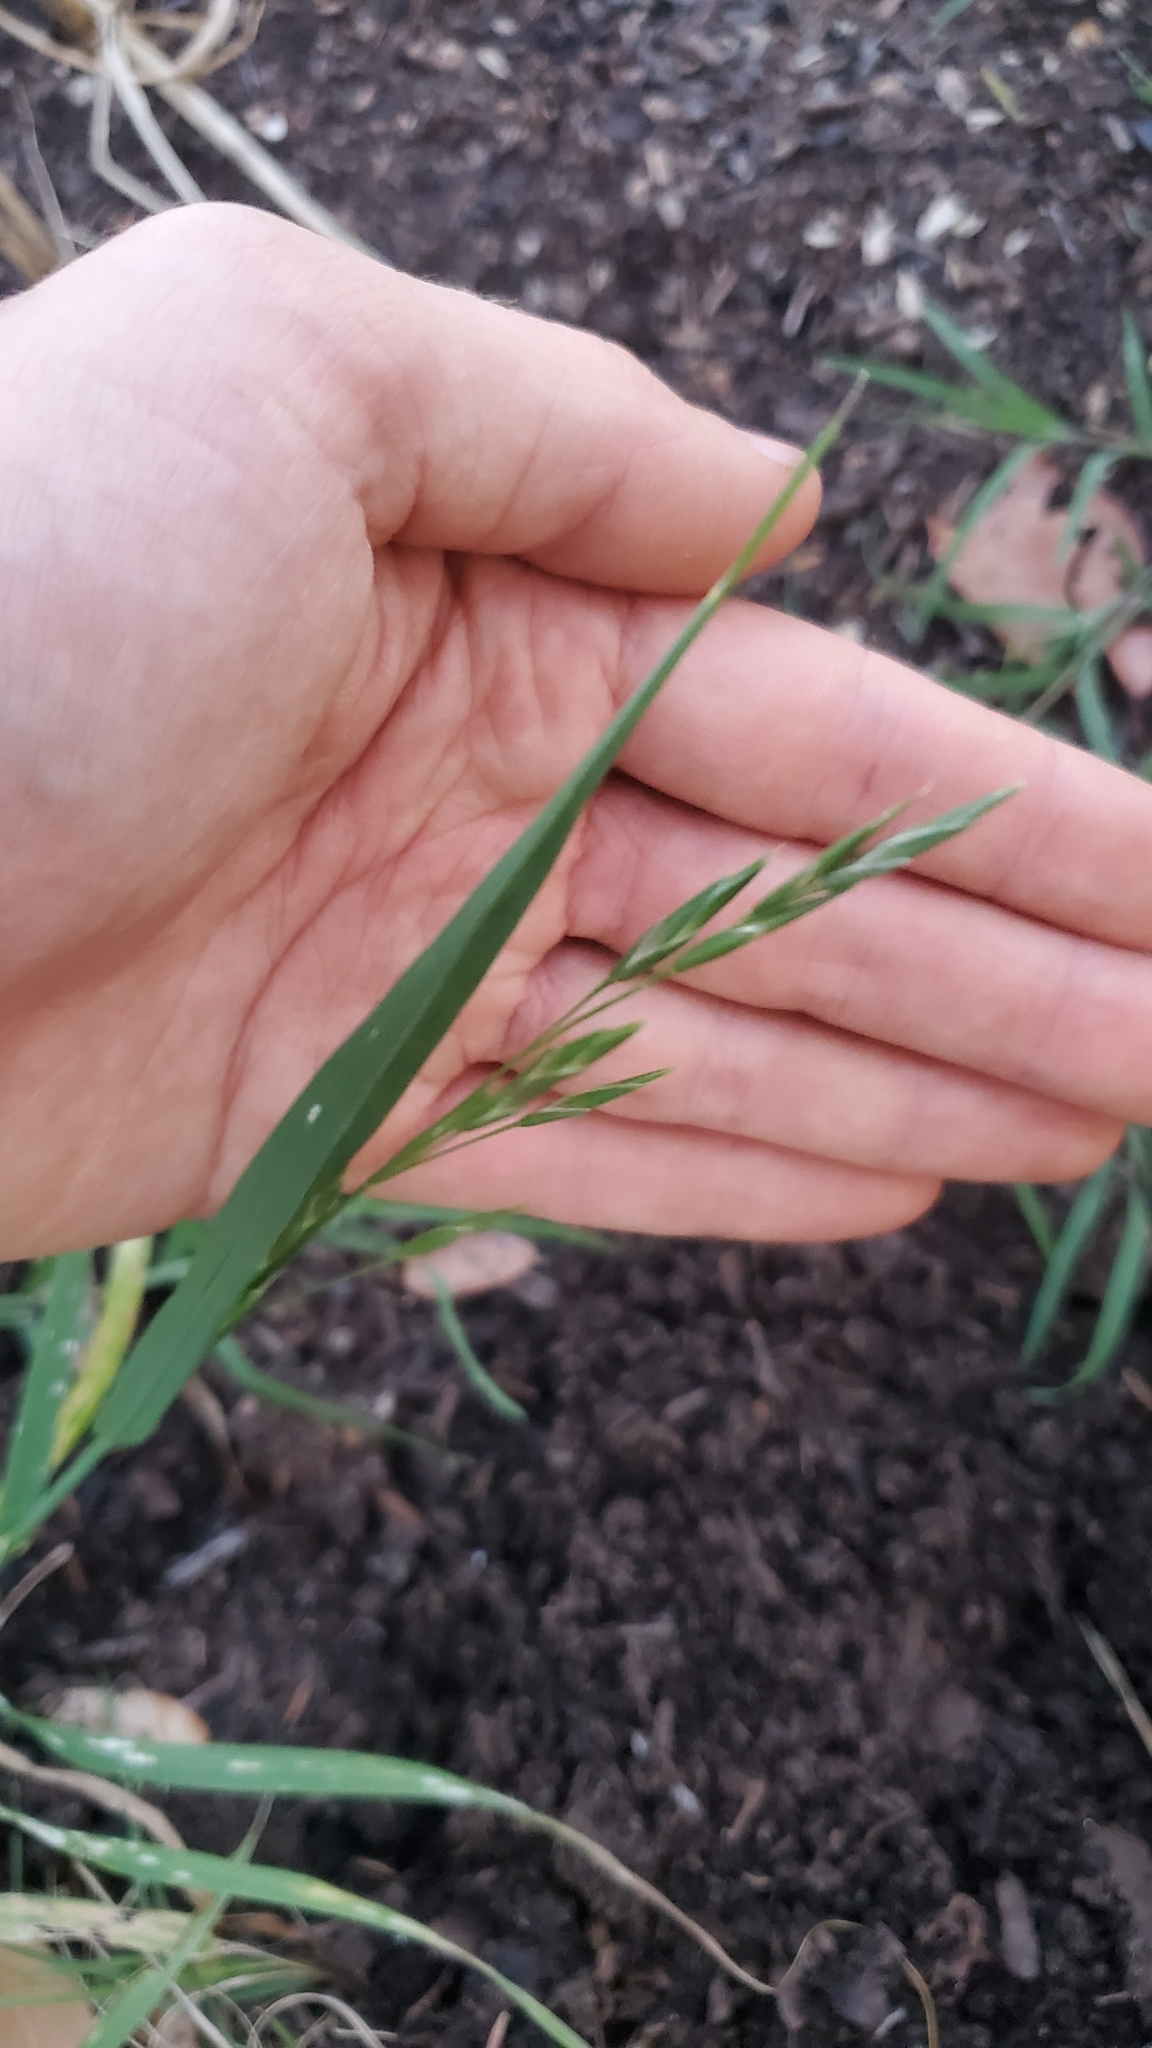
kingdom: Plantae
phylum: Tracheophyta
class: Liliopsida
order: Poales
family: Poaceae
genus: Bromus
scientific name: Bromus catharticus
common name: Rescuegrass
